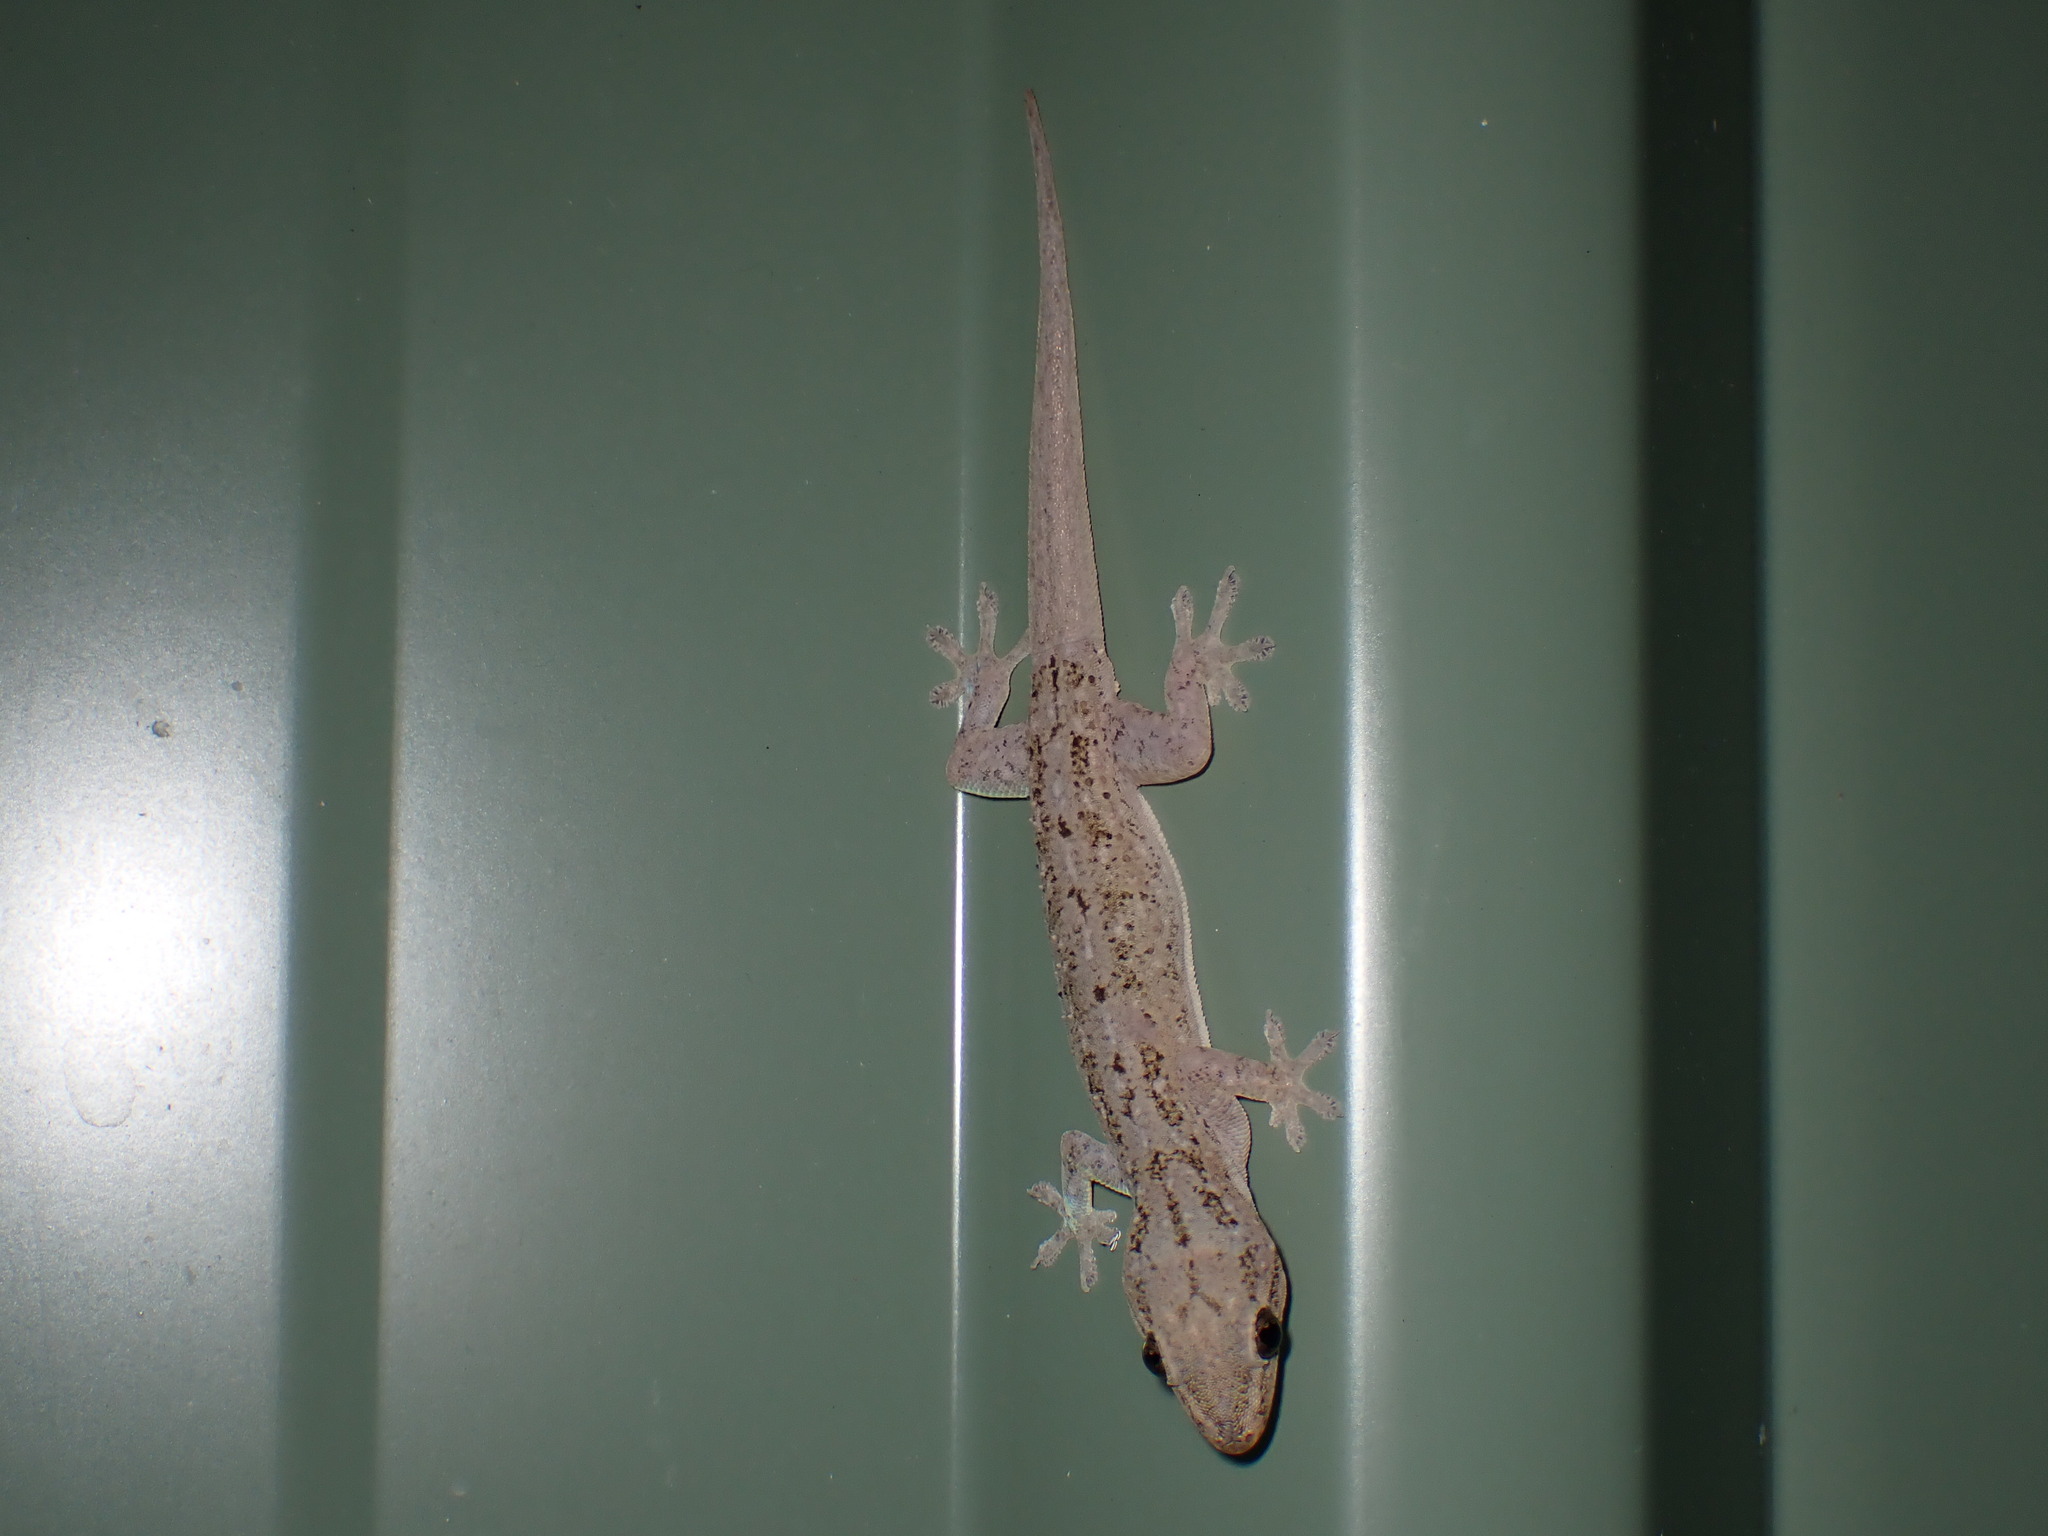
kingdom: Animalia
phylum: Chordata
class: Squamata
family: Gekkonidae
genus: Hemidactylus
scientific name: Hemidactylus frenatus
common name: Common house gecko
